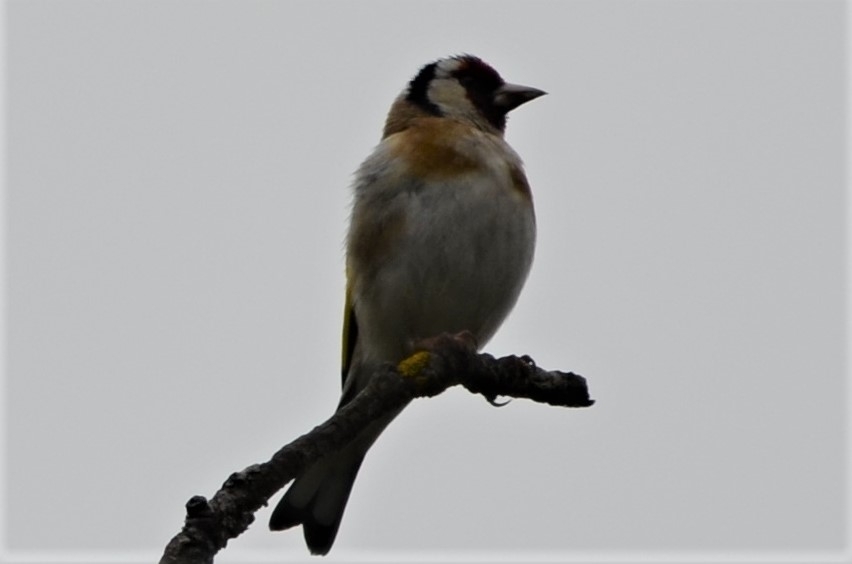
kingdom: Animalia
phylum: Chordata
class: Aves
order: Passeriformes
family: Fringillidae
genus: Carduelis
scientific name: Carduelis carduelis
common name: European goldfinch
